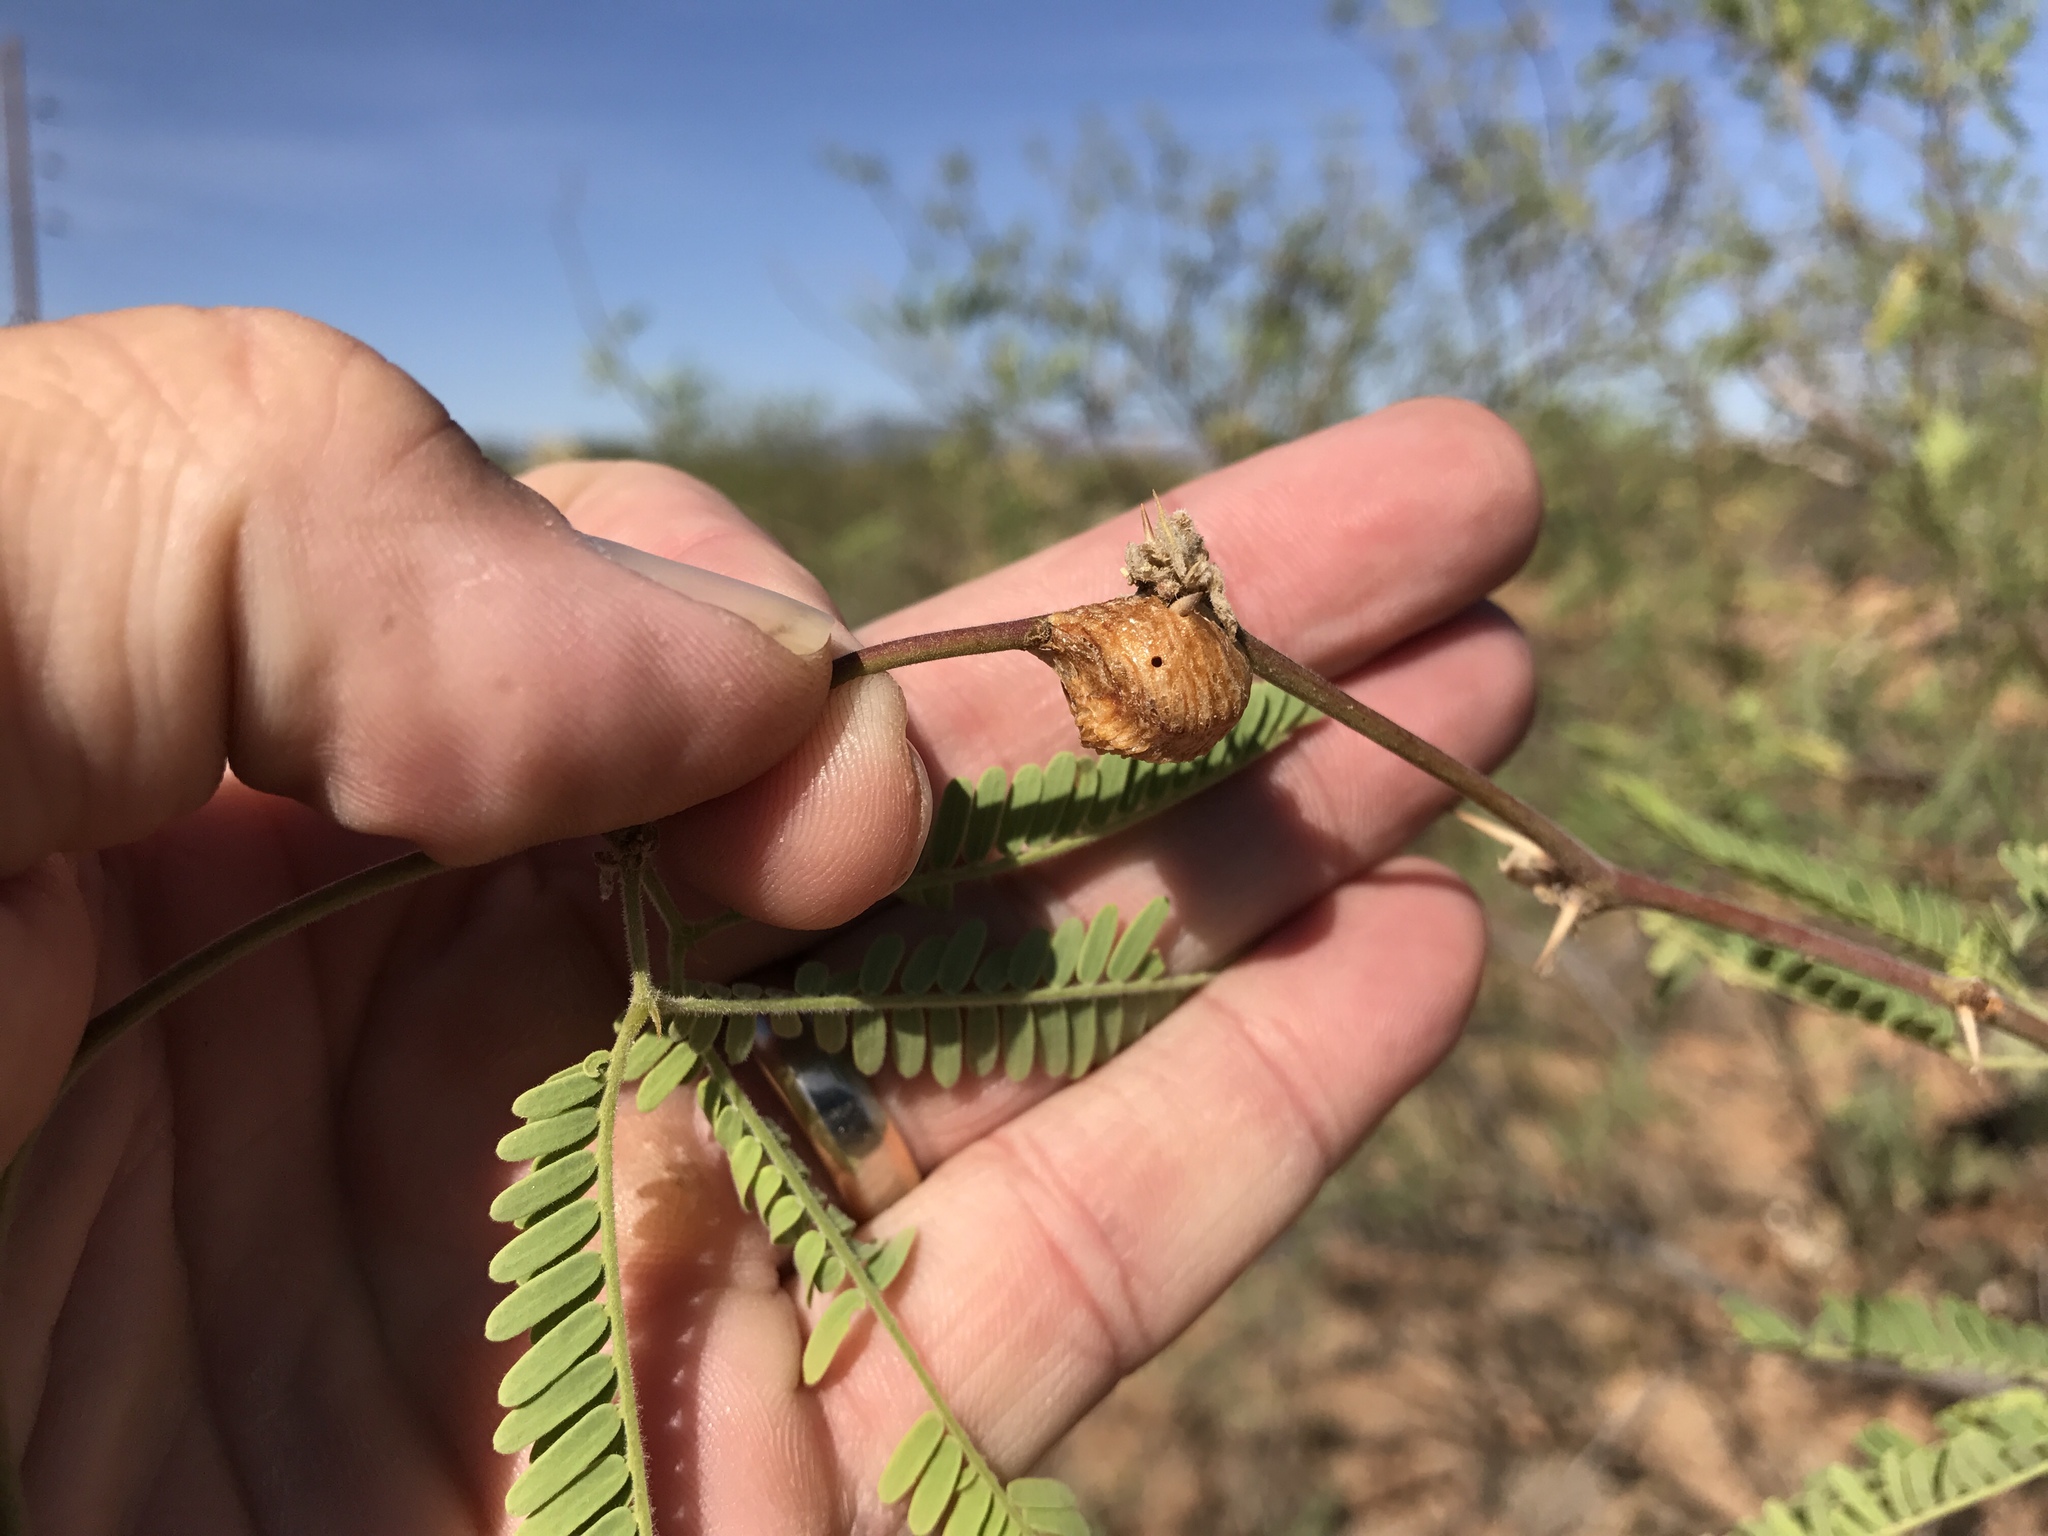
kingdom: Plantae
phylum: Tracheophyta
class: Magnoliopsida
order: Fabales
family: Fabaceae
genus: Prosopis
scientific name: Prosopis velutina
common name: Velvet mesquite
